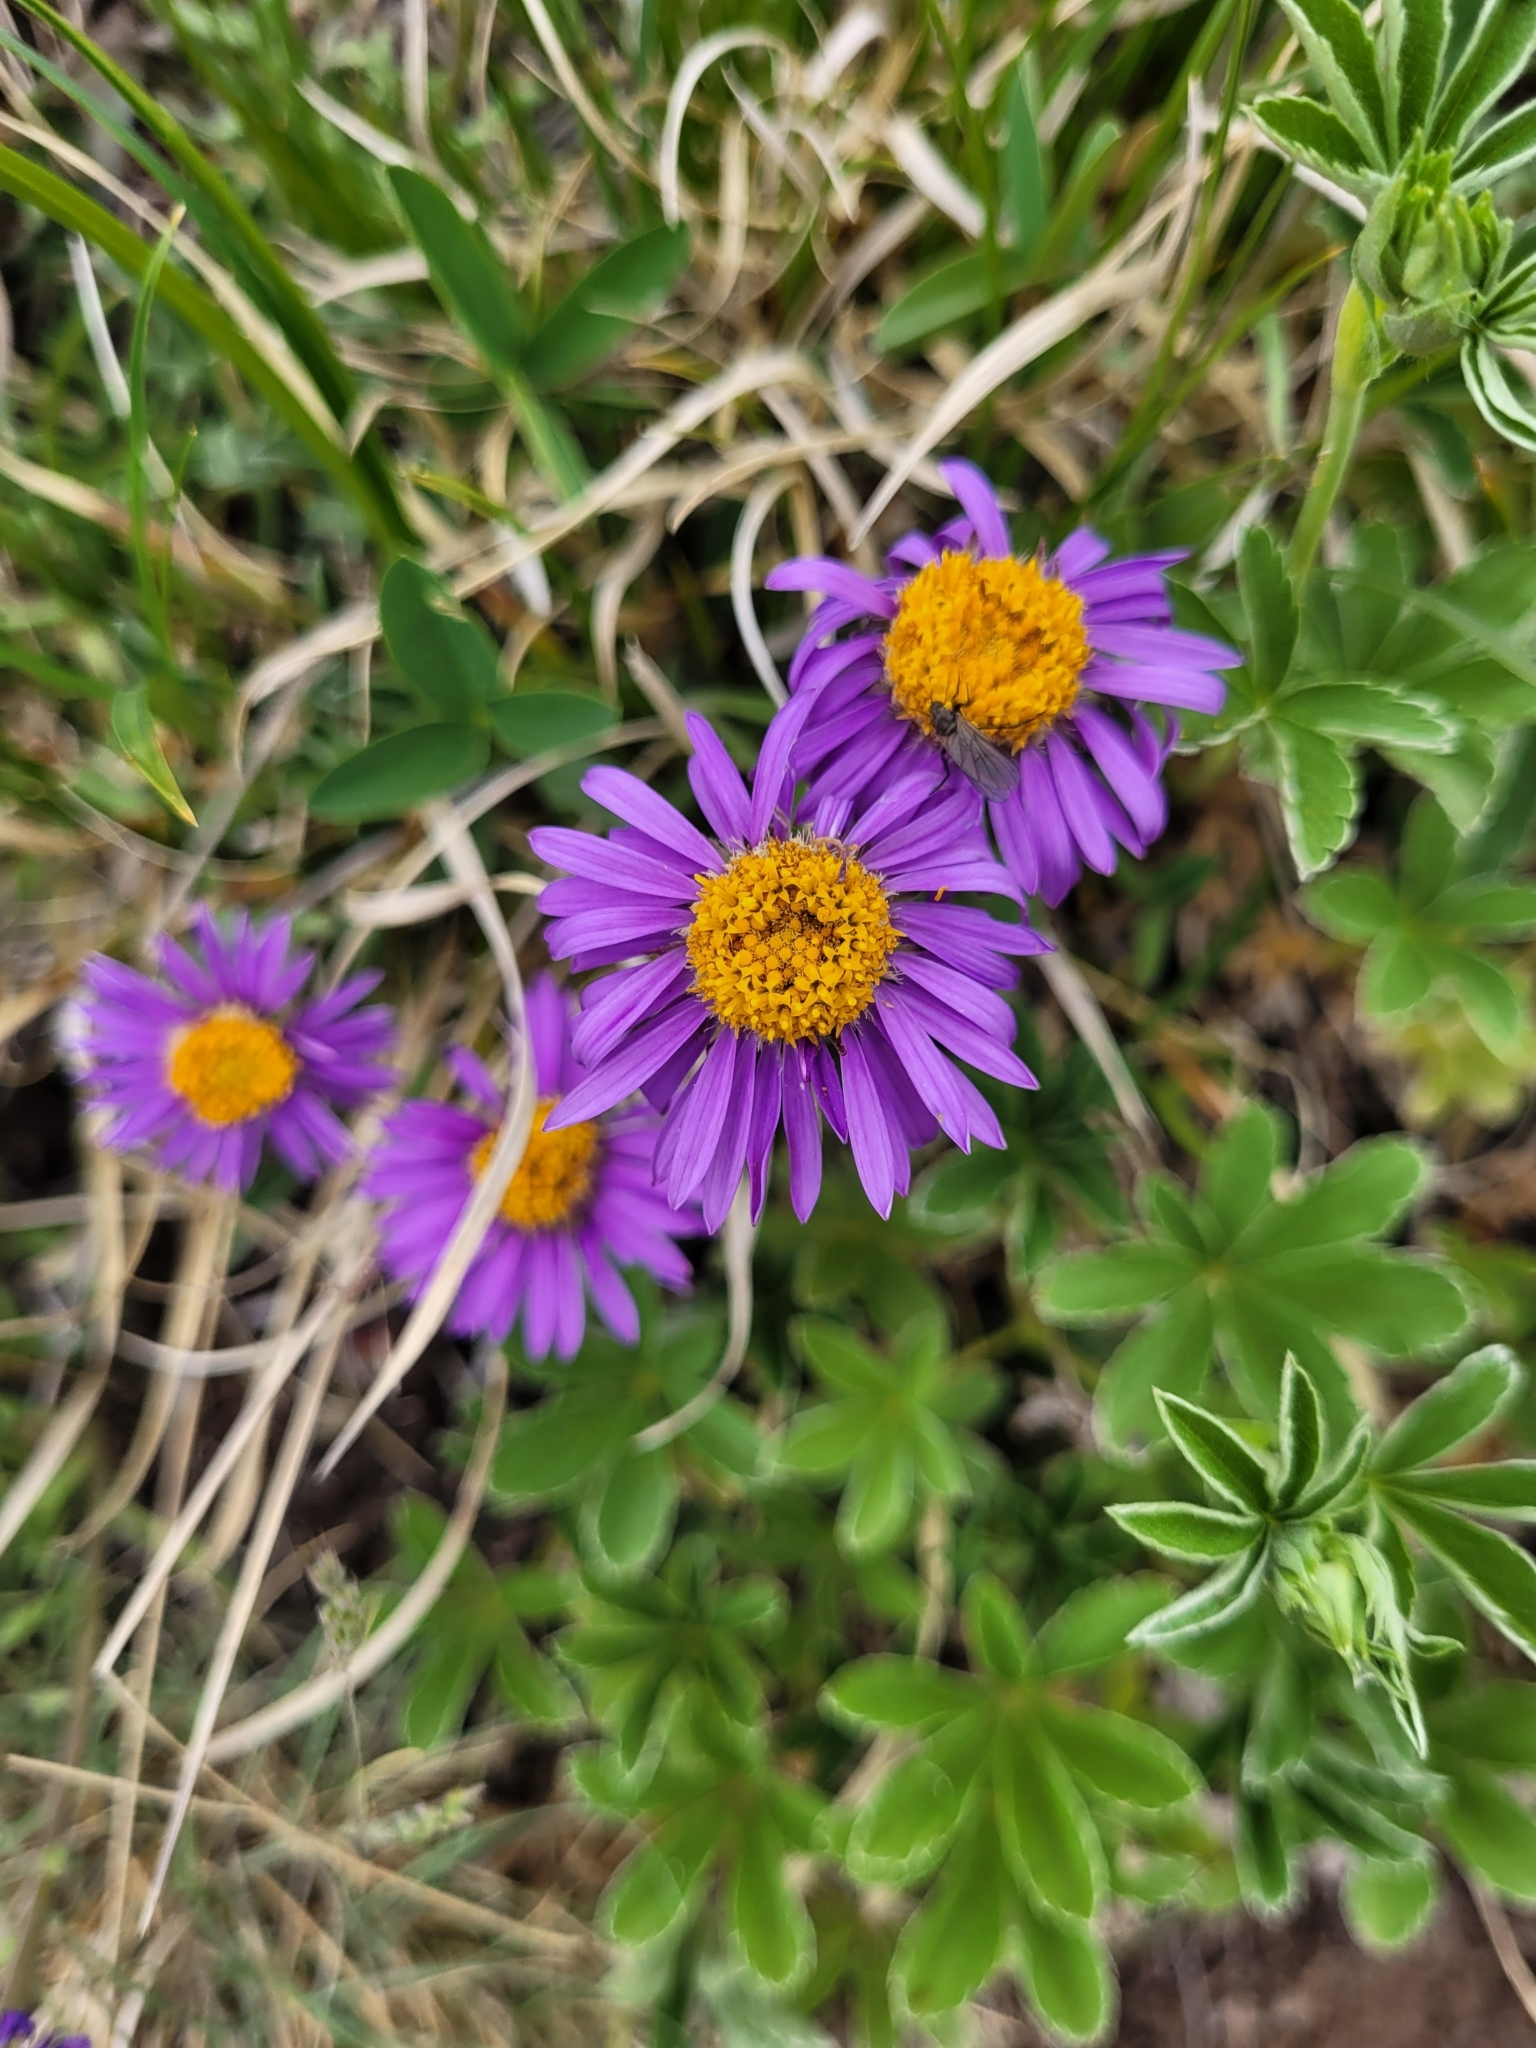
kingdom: Plantae
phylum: Tracheophyta
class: Magnoliopsida
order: Asterales
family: Asteraceae
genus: Aster
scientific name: Aster alpinus
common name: Alpine aster
